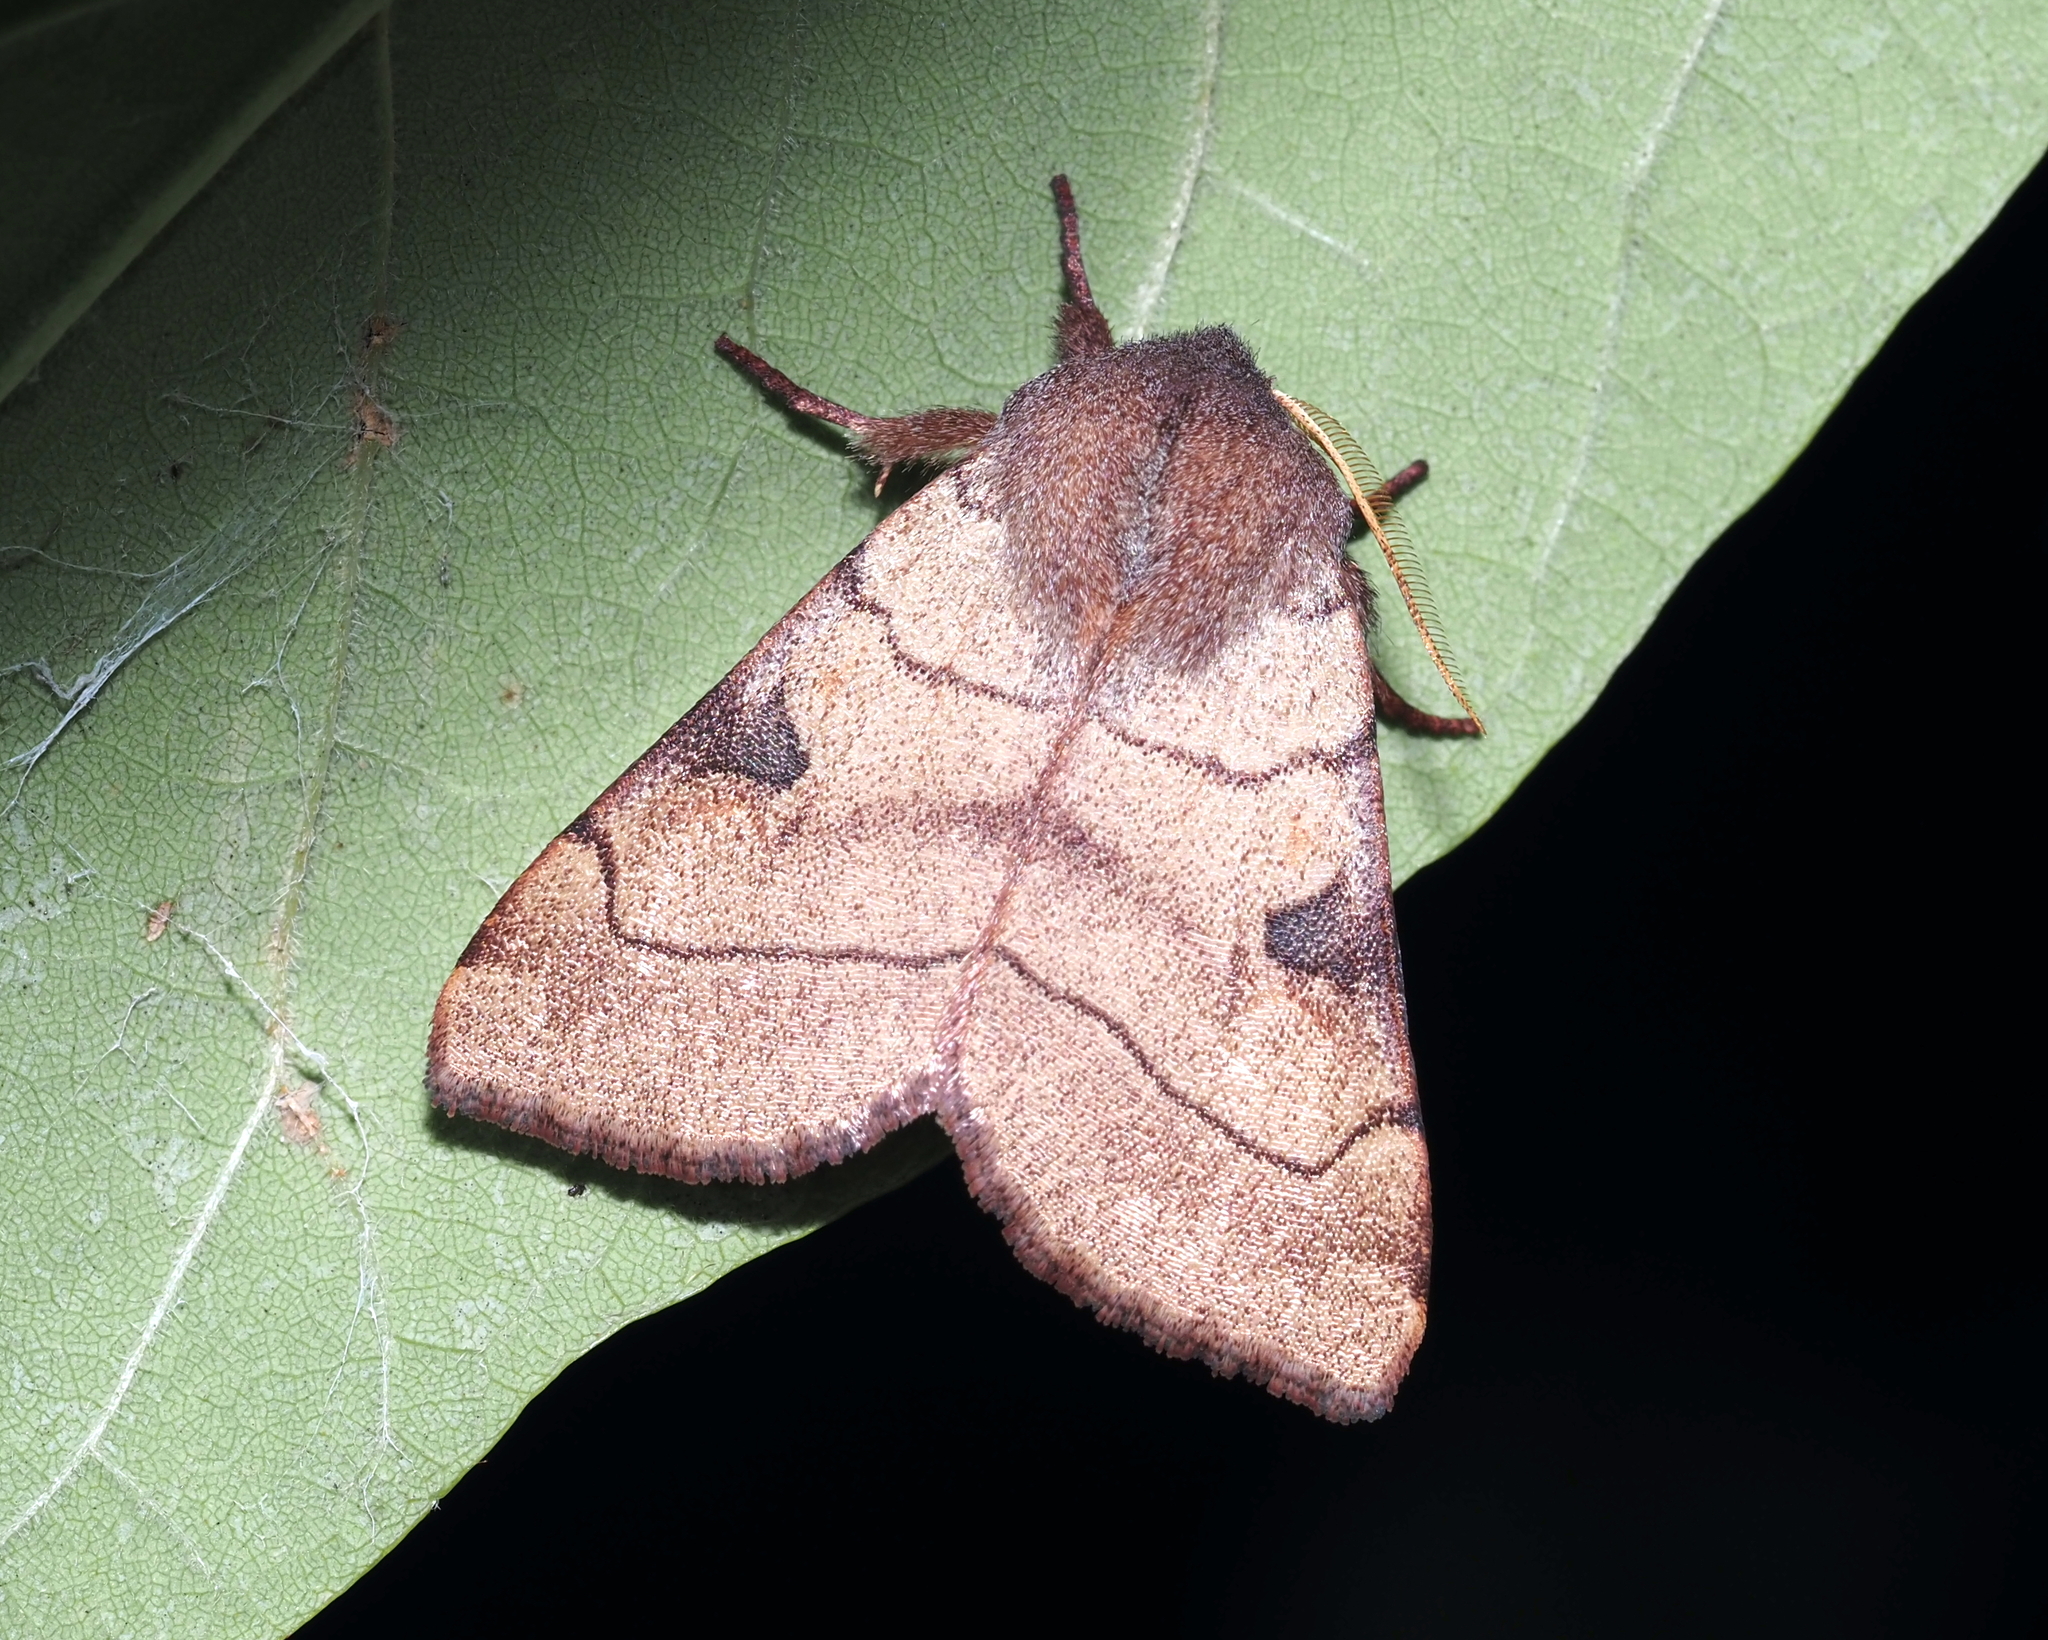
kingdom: Animalia
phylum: Arthropoda
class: Insecta
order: Lepidoptera
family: Noctuidae
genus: Choephora
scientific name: Choephora fungorum
